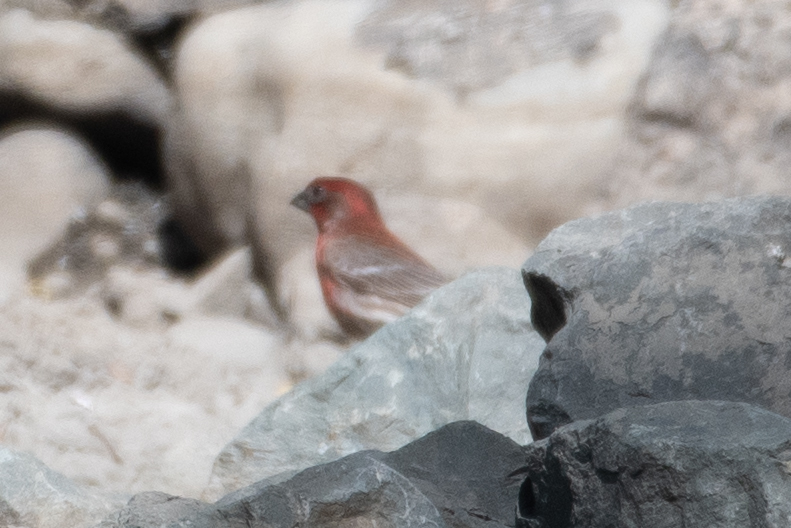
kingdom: Animalia
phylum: Chordata
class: Aves
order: Passeriformes
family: Fringillidae
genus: Haemorhous
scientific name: Haemorhous mexicanus
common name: House finch
